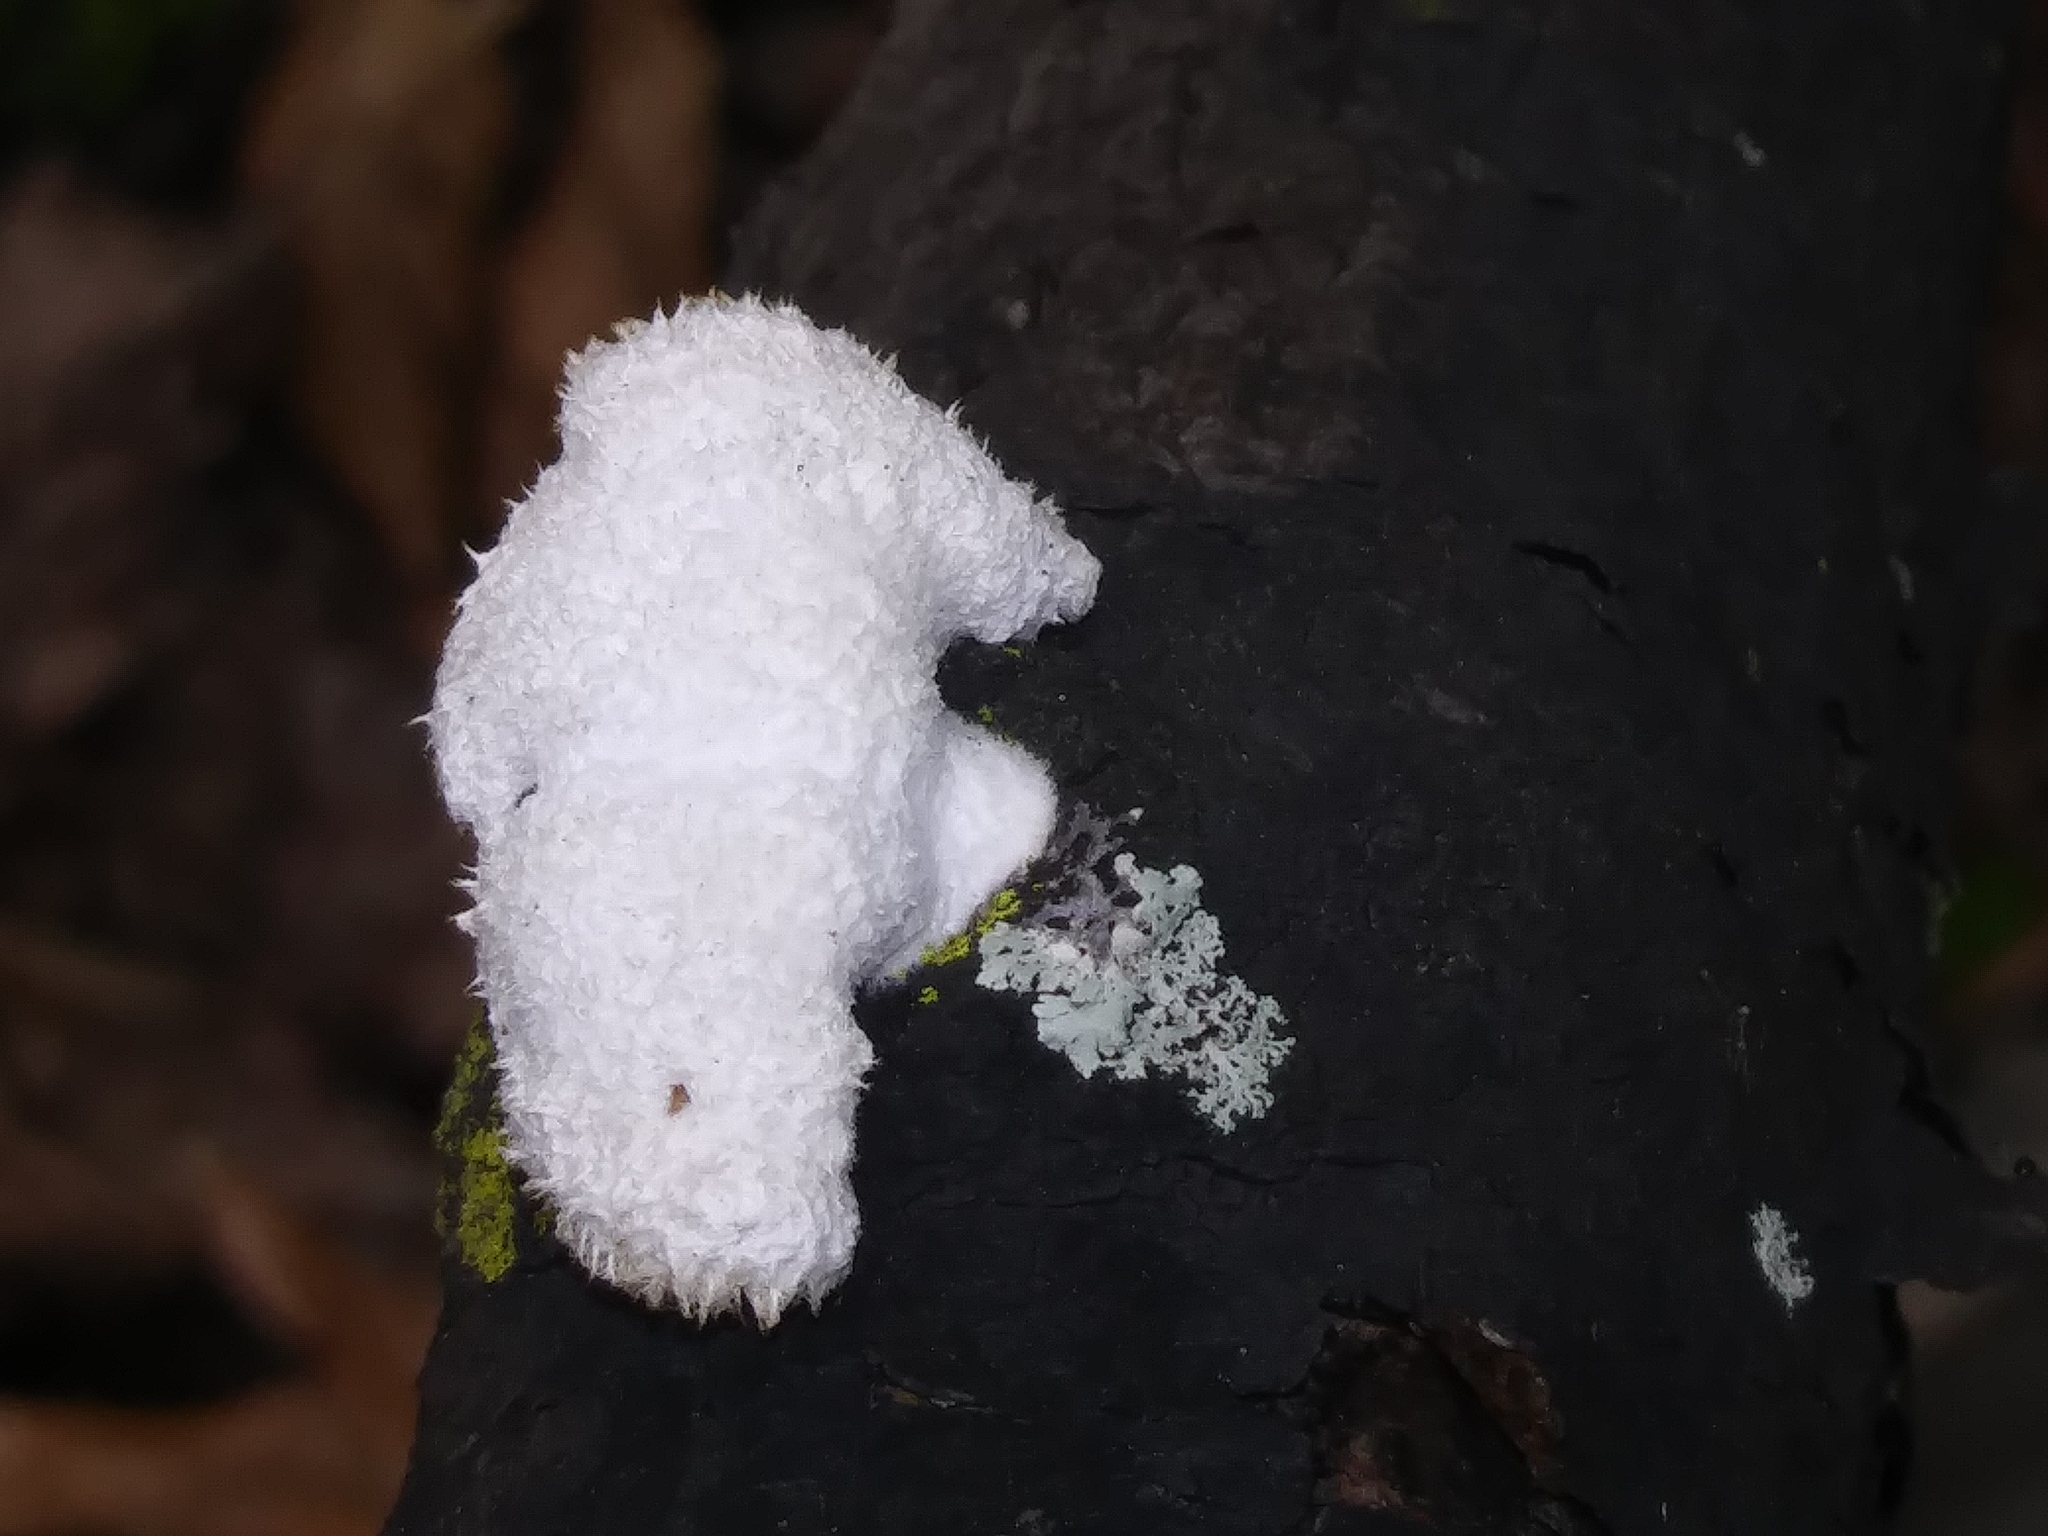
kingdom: Fungi
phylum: Basidiomycota
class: Agaricomycetes
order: Agaricales
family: Schizophyllaceae
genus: Schizophyllum
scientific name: Schizophyllum commune
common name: Common porecrust
